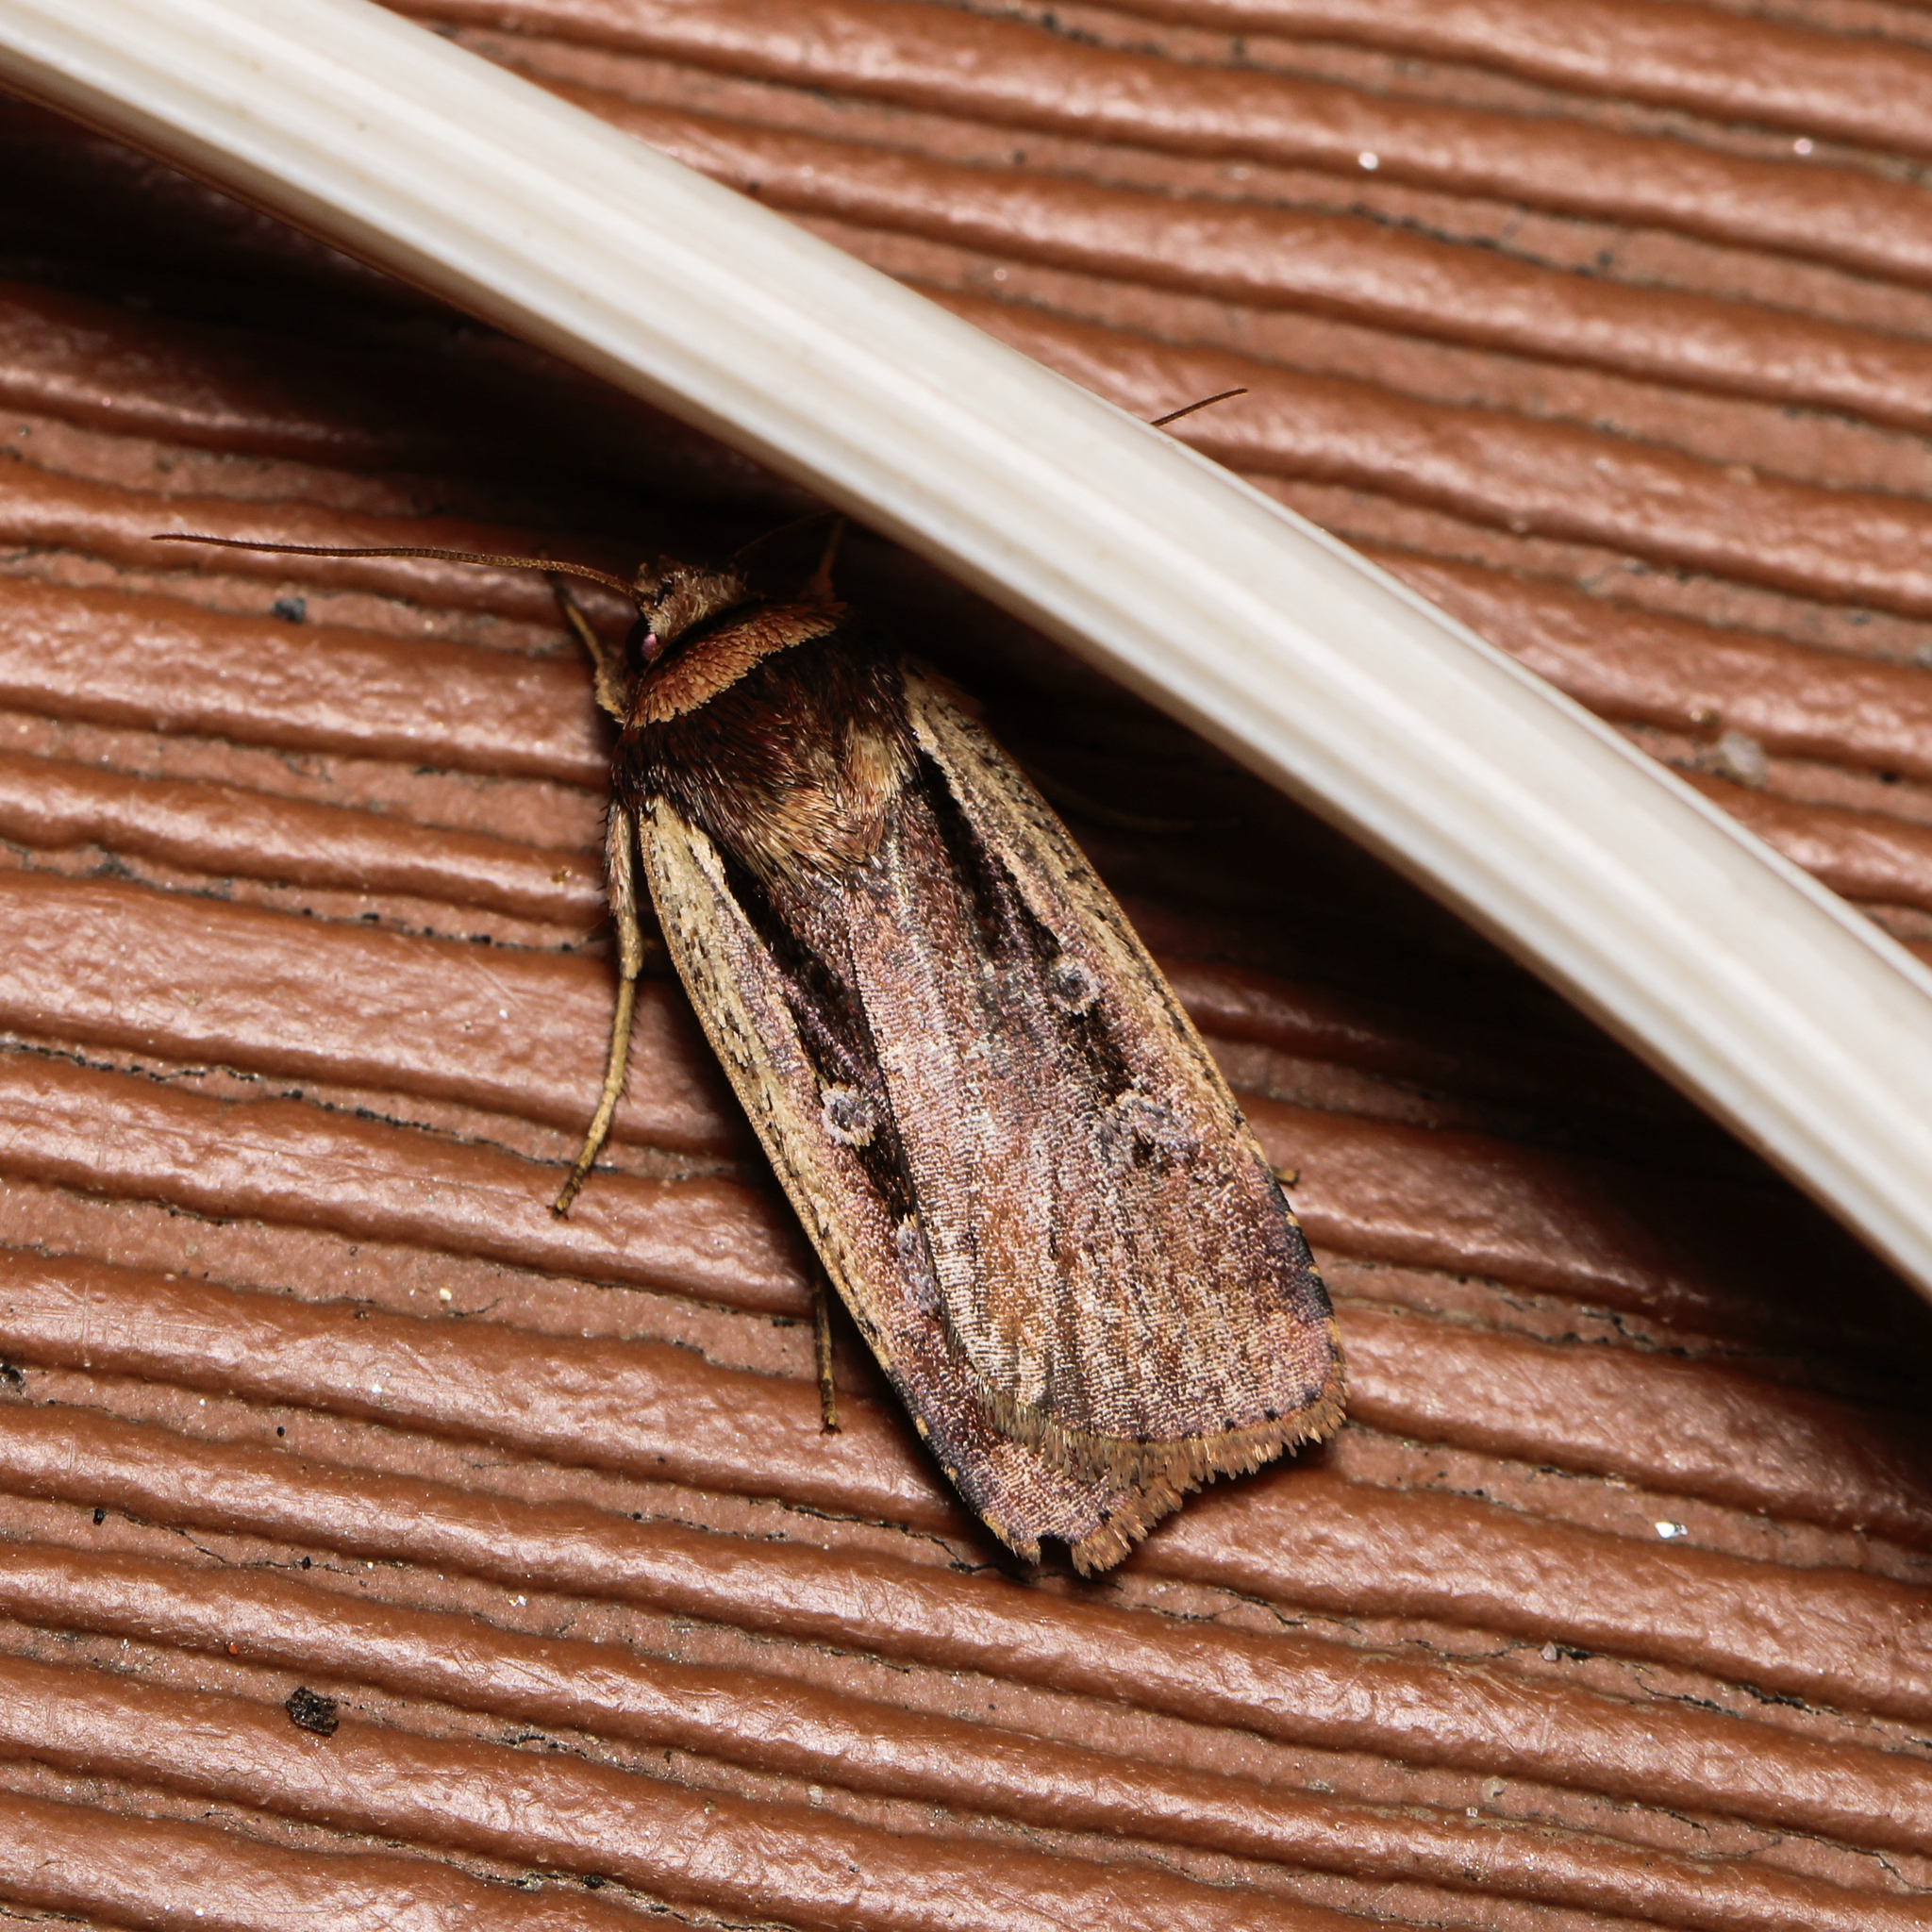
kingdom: Animalia
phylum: Arthropoda
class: Insecta
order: Lepidoptera
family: Noctuidae
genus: Ochropleura
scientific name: Ochropleura implecta
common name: Flame-shouldered dart
